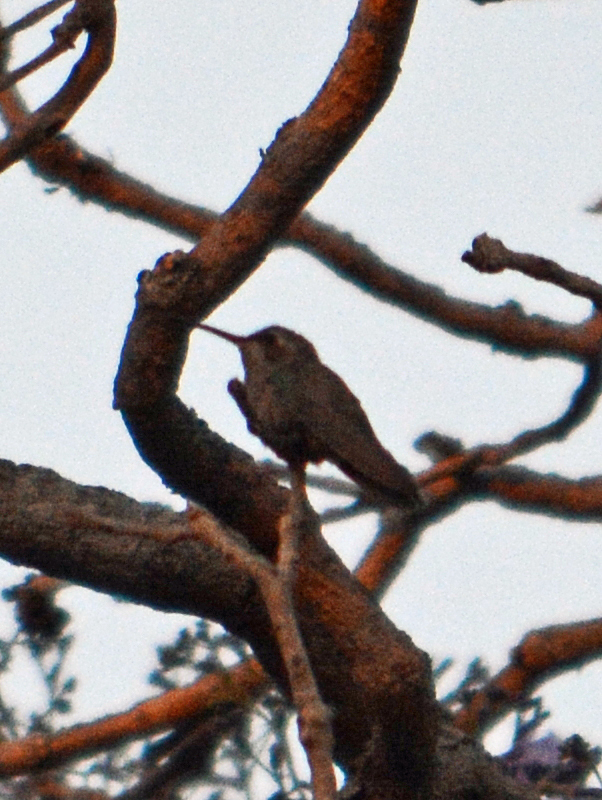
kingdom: Animalia
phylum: Chordata
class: Aves
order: Apodiformes
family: Trochilidae
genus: Cynanthus
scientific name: Cynanthus latirostris
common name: Broad-billed hummingbird
